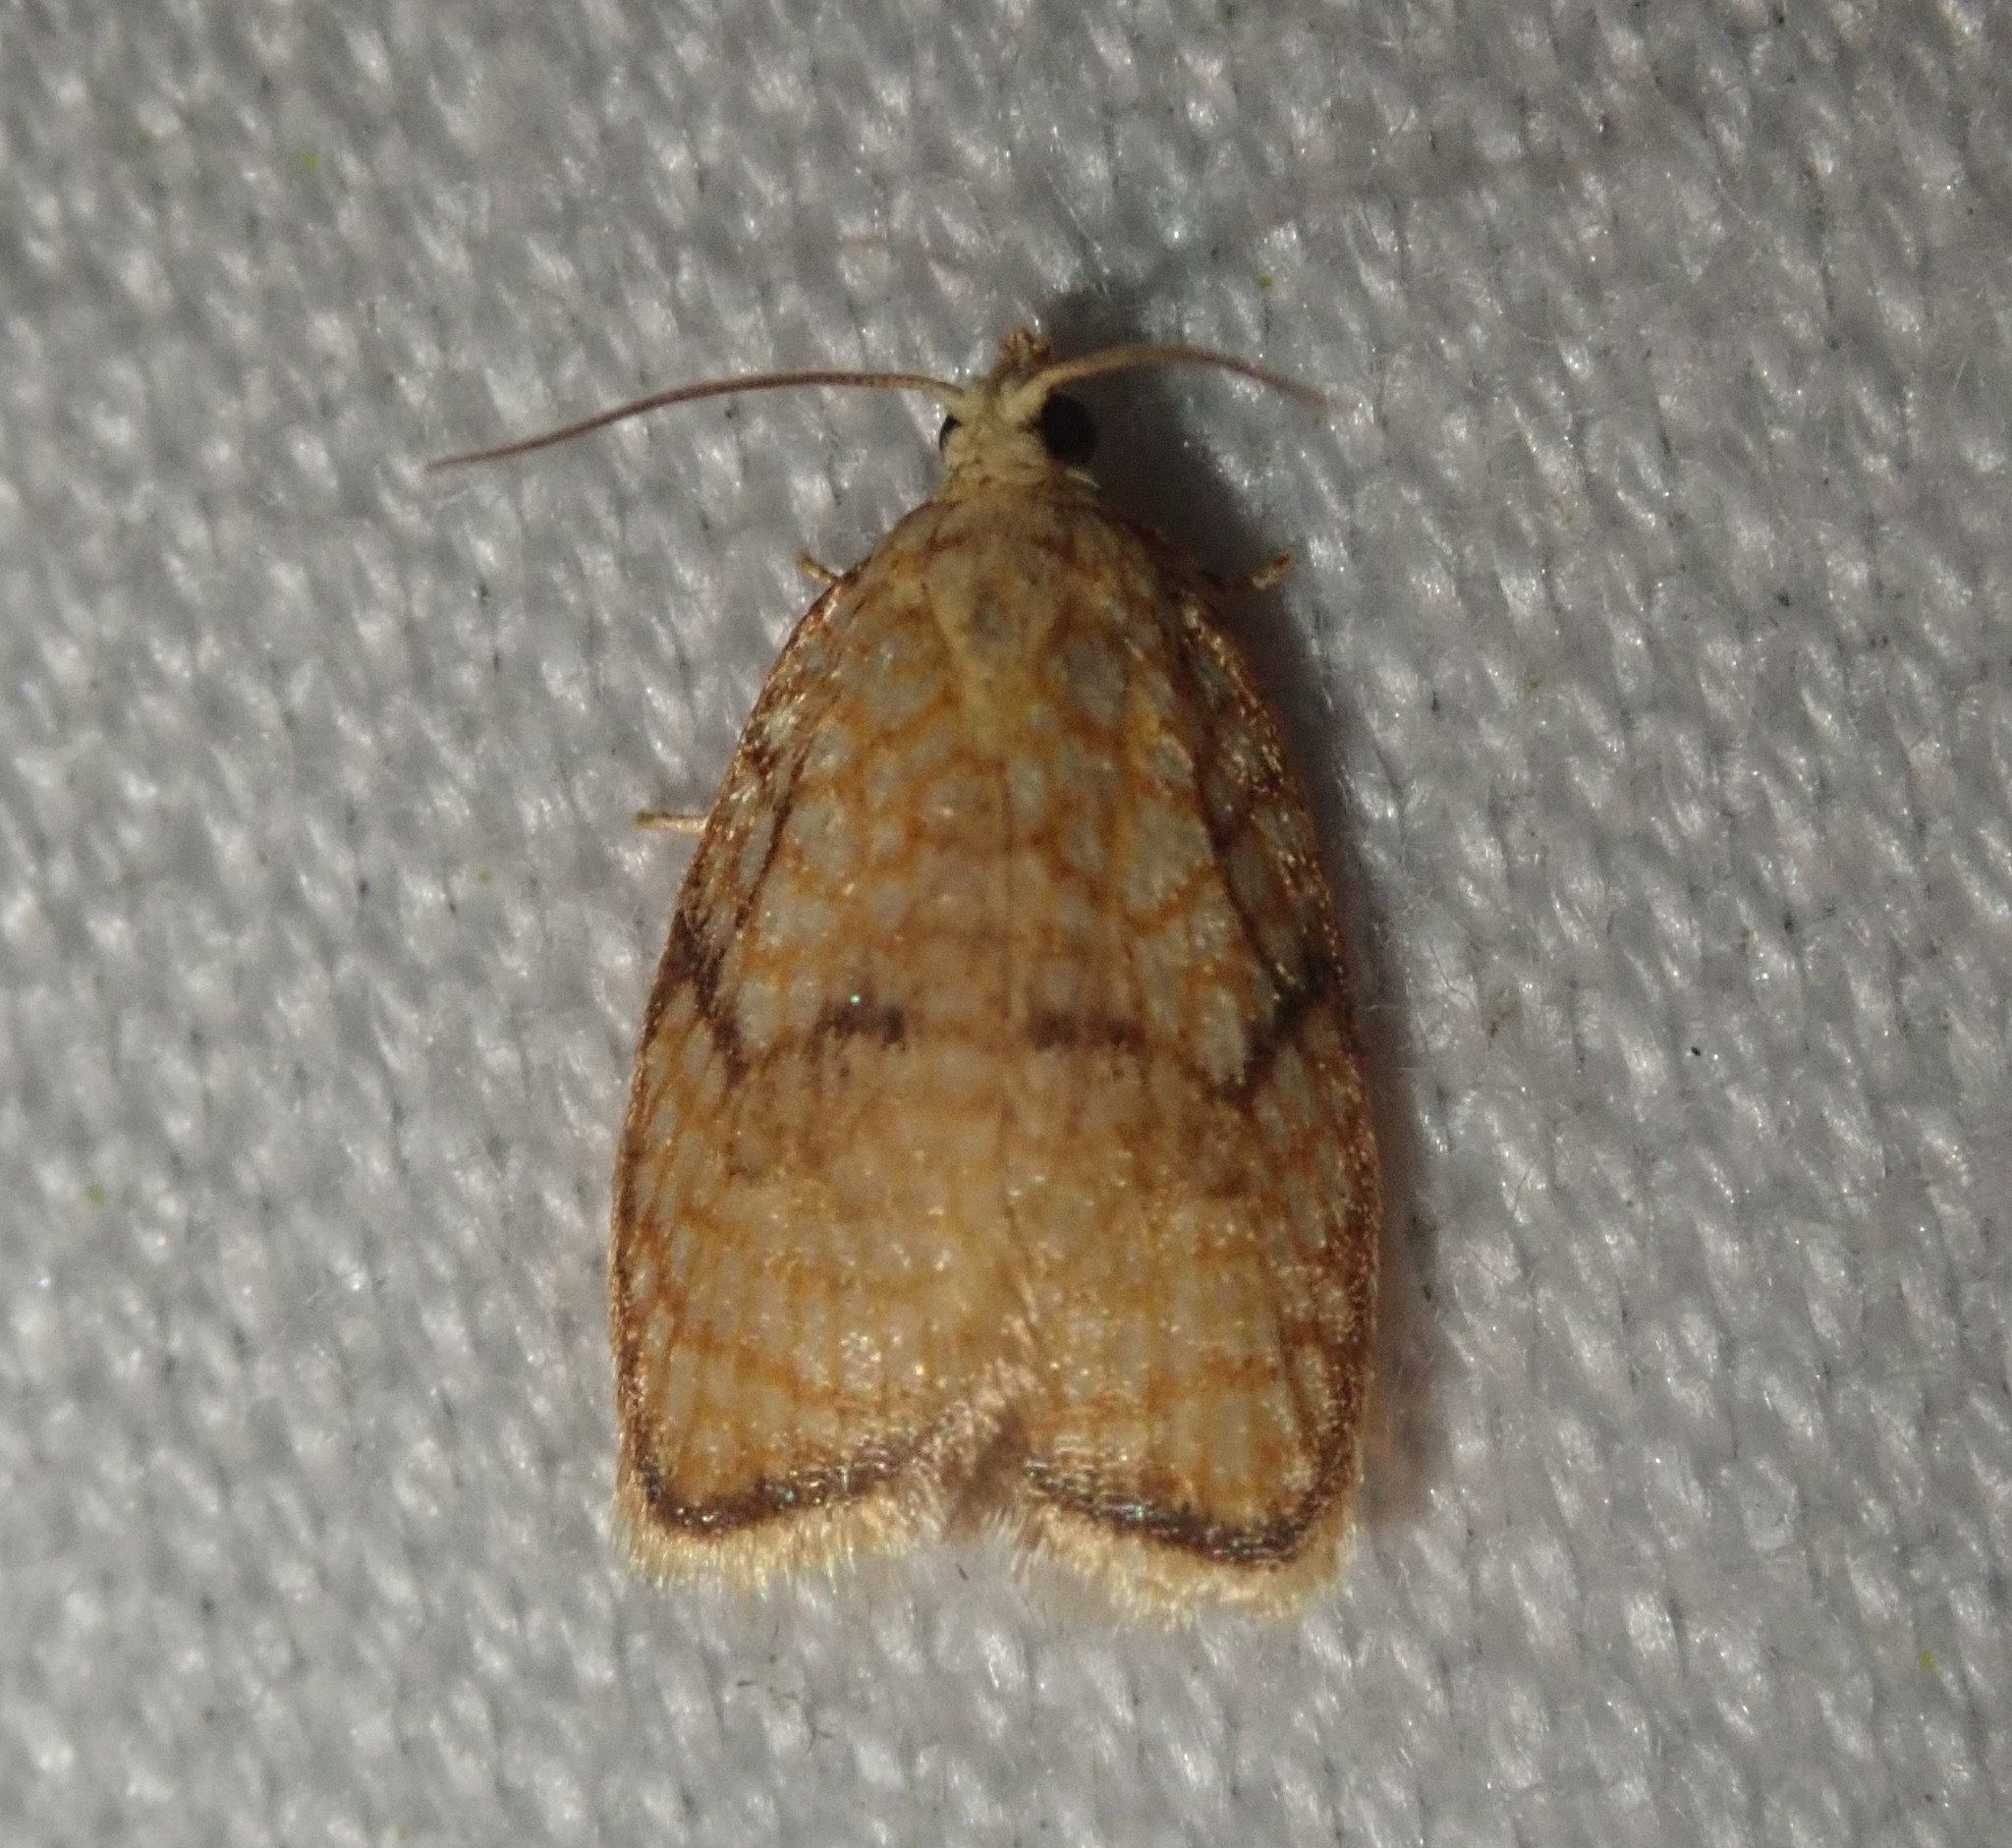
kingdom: Animalia
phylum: Arthropoda
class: Insecta
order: Lepidoptera
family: Tortricidae
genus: Acleris
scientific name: Acleris forsskaleana
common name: Maple button
